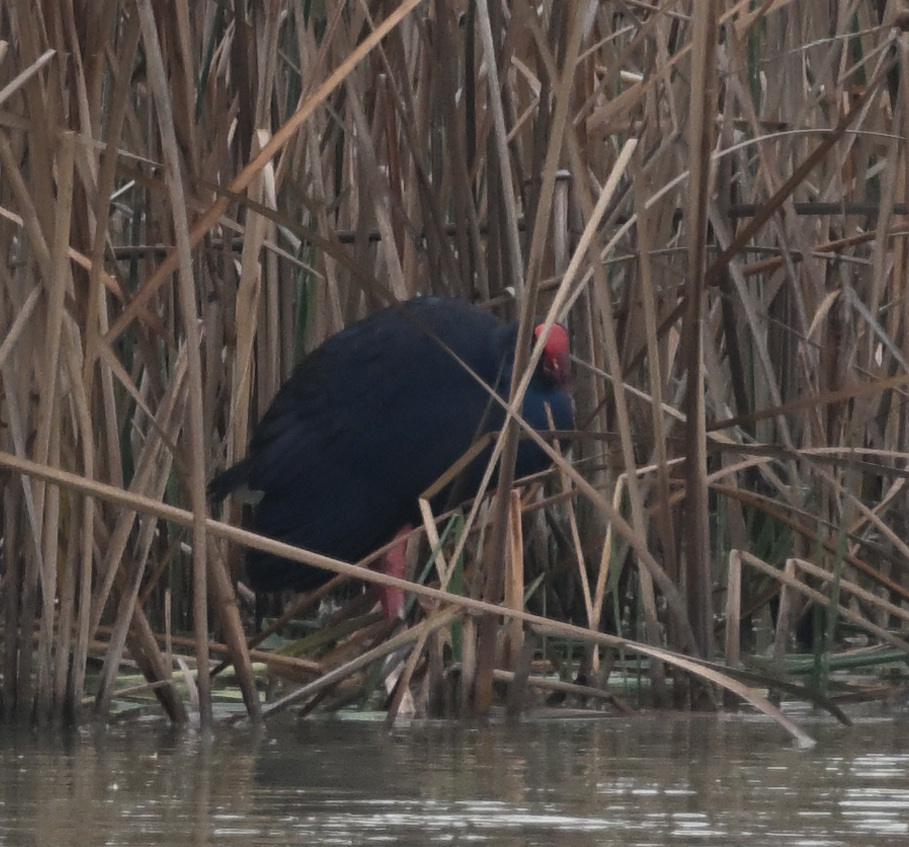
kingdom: Animalia
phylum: Chordata
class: Aves
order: Gruiformes
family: Rallidae
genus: Porphyrio
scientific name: Porphyrio porphyrio
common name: Purple swamphen
